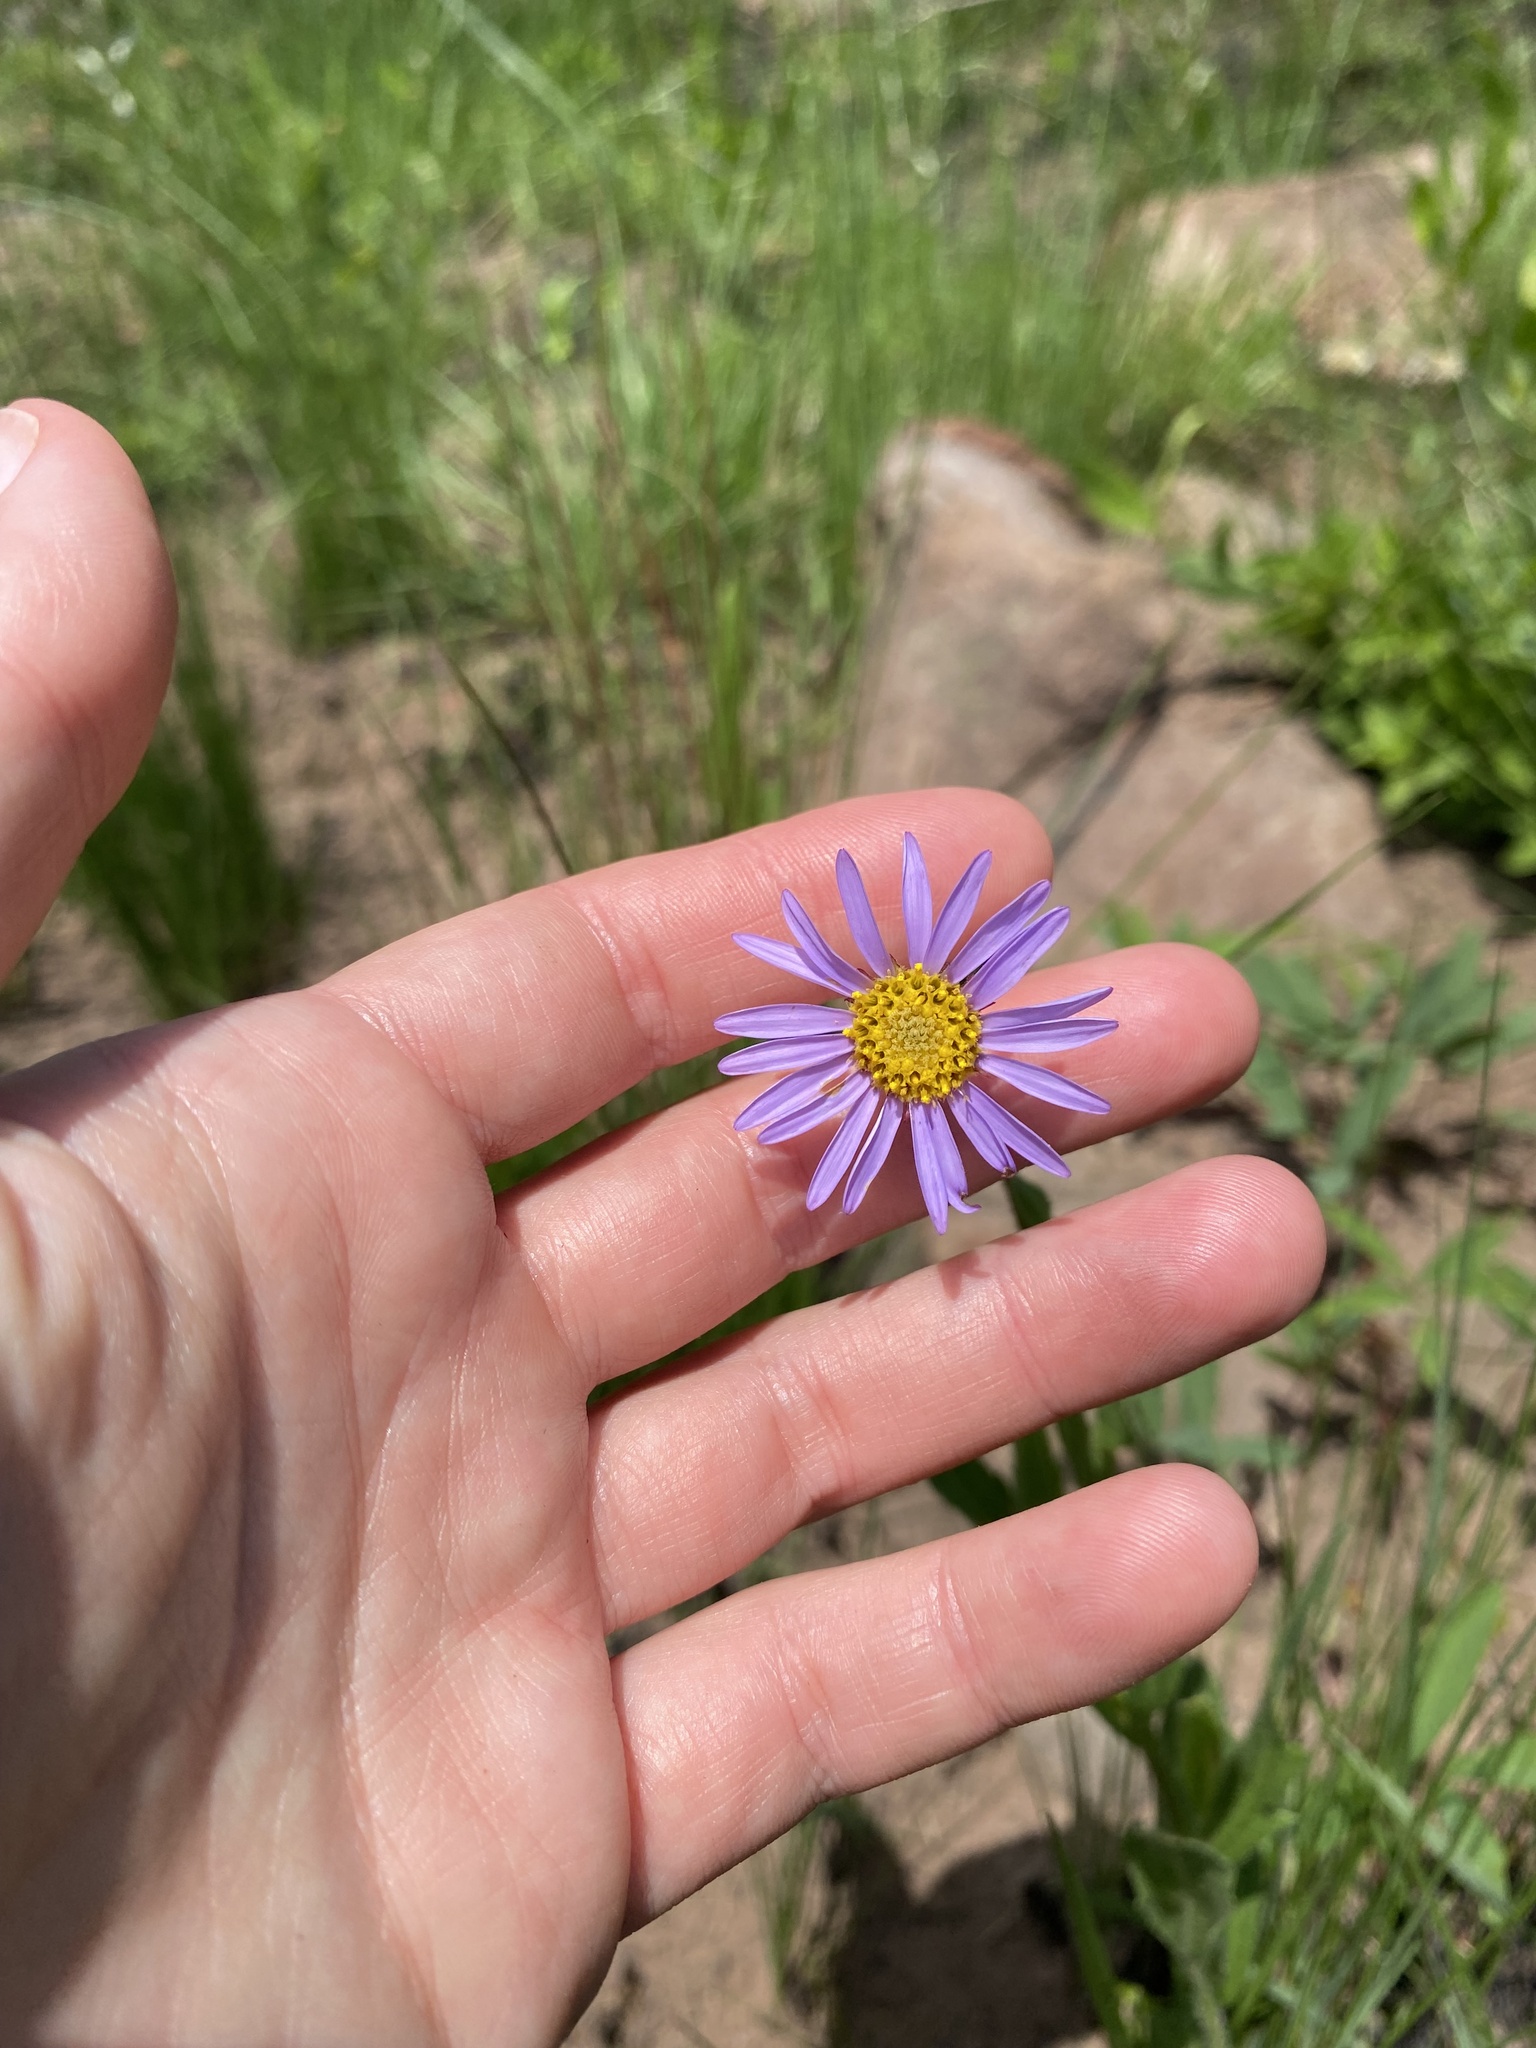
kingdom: Plantae
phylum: Tracheophyta
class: Magnoliopsida
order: Asterales
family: Asteraceae
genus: Afroaster
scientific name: Afroaster hispidus
